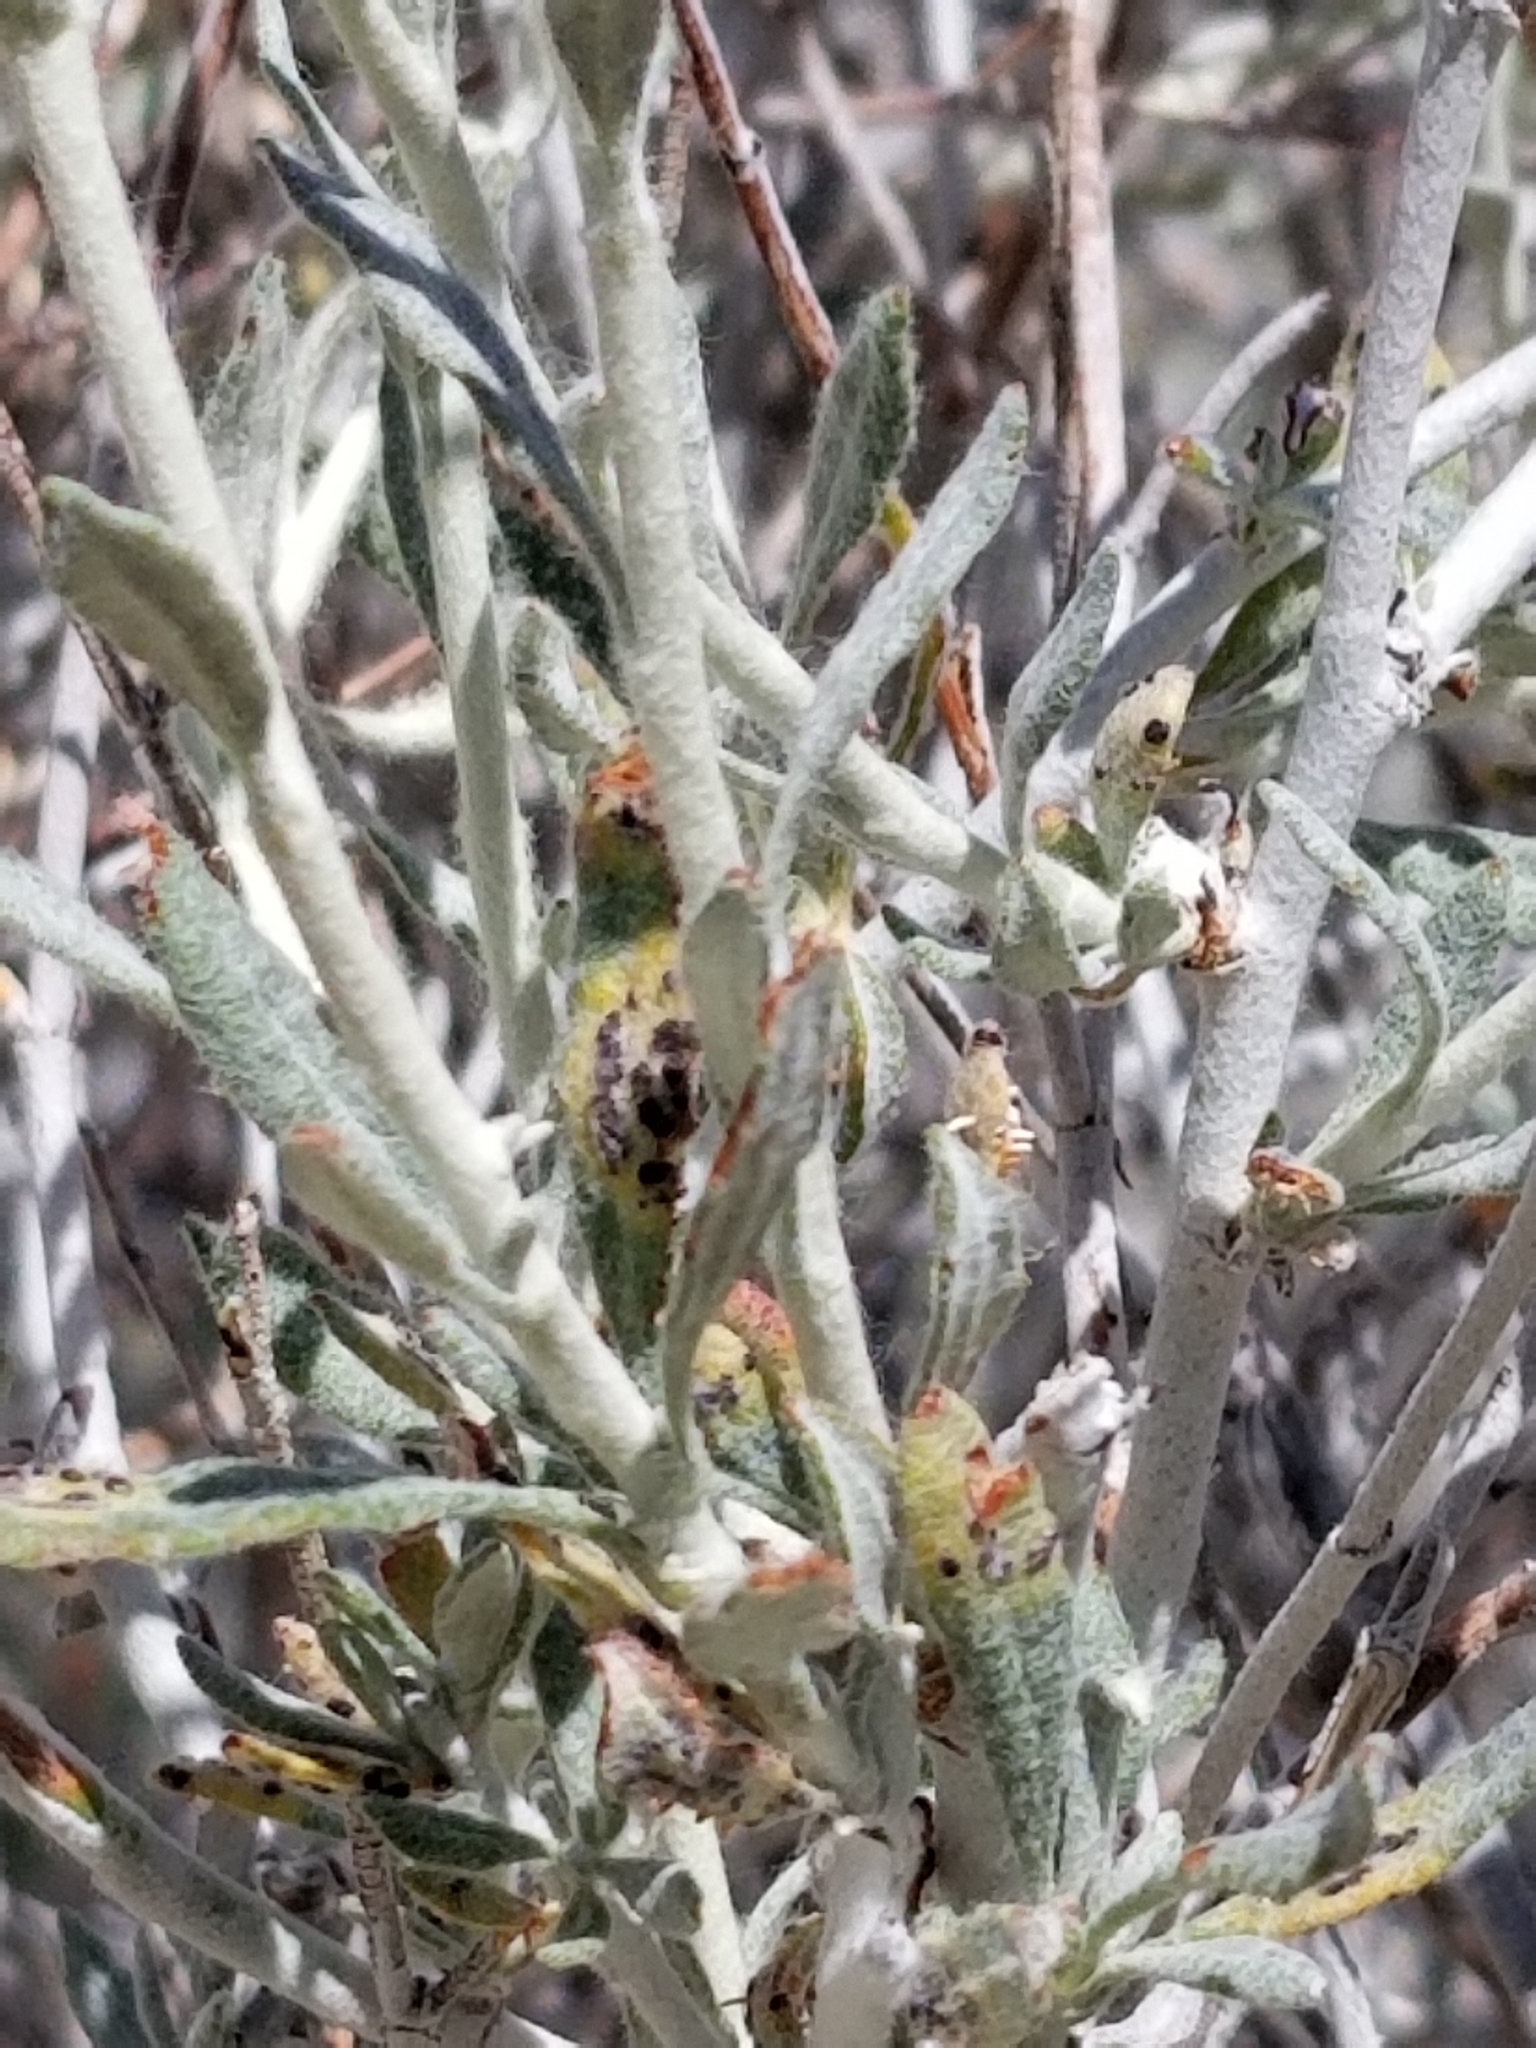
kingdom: Plantae
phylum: Tracheophyta
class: Magnoliopsida
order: Caryophyllales
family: Polygonaceae
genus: Eriogonum
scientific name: Eriogonum wrightii
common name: Bastard-sage
